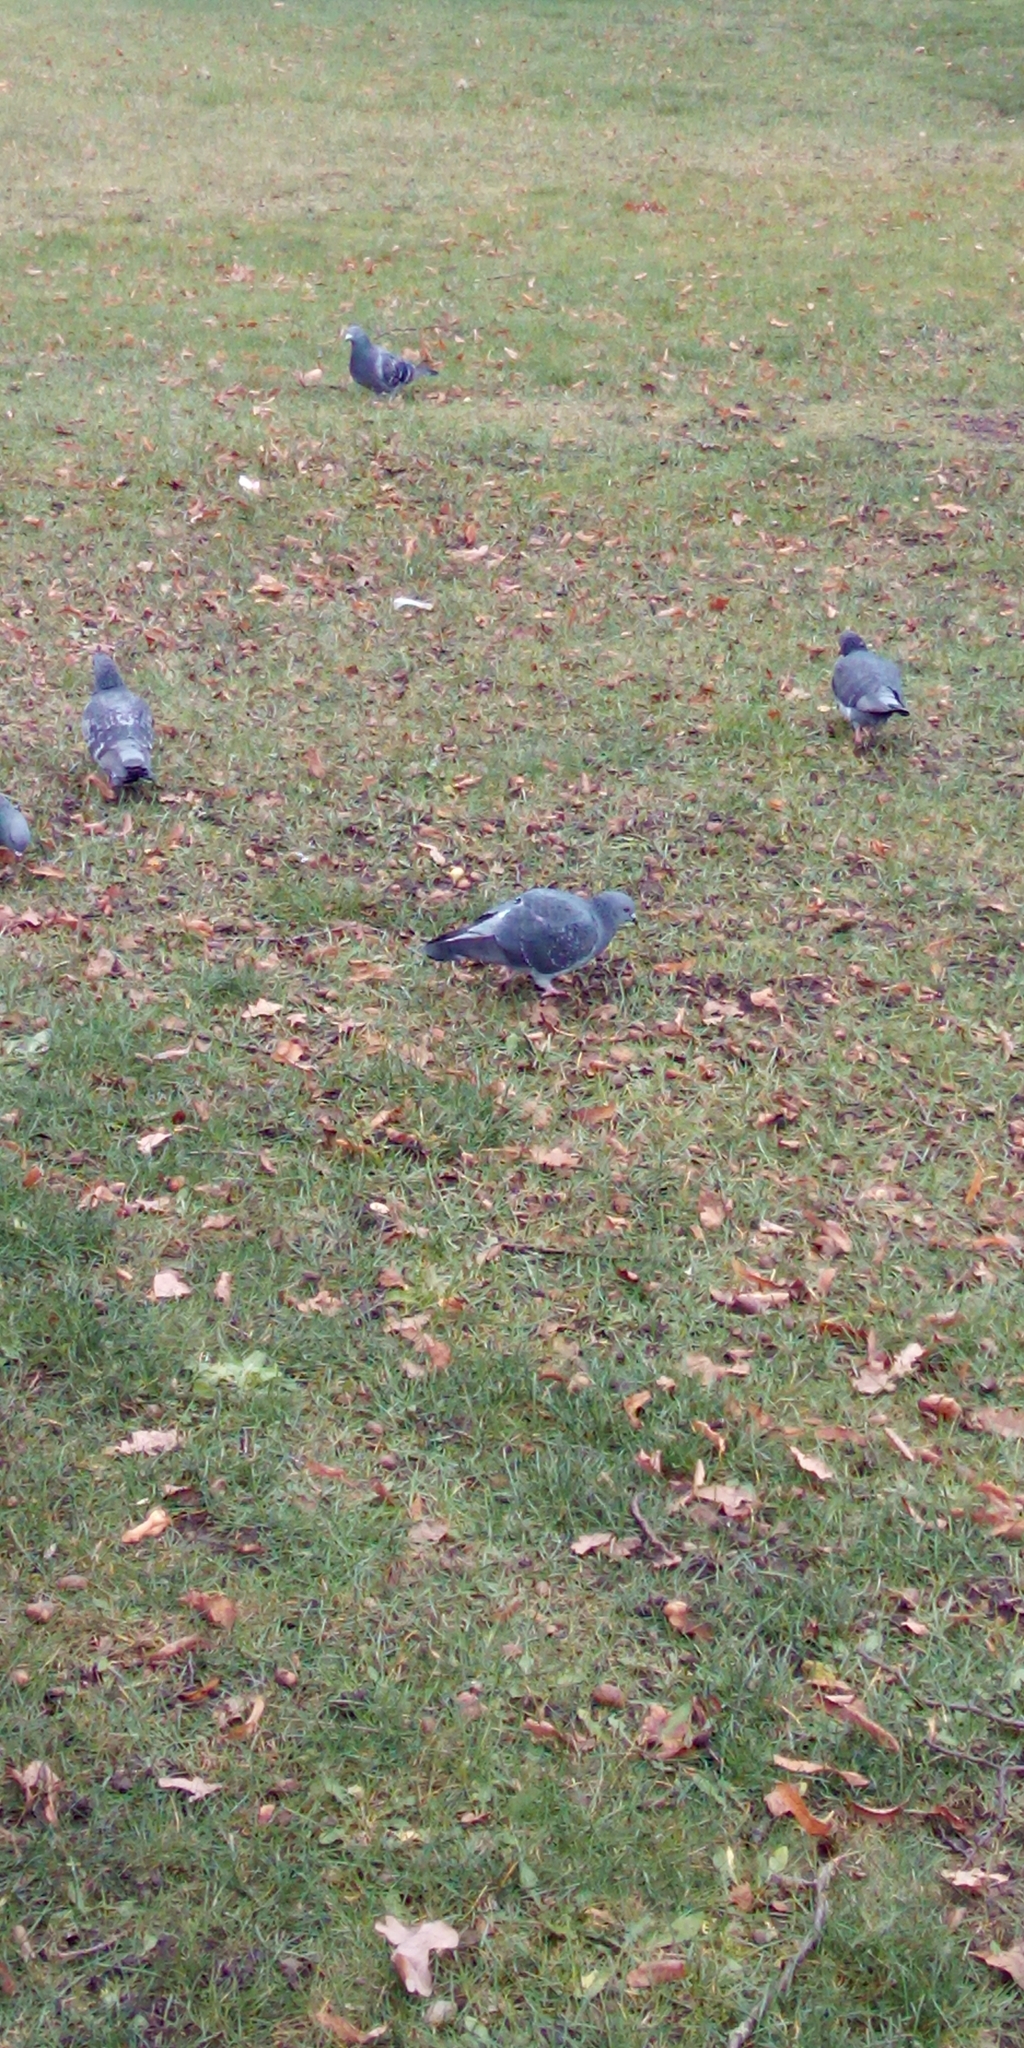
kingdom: Animalia
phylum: Chordata
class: Aves
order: Columbiformes
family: Columbidae
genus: Columba
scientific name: Columba livia
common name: Rock pigeon
